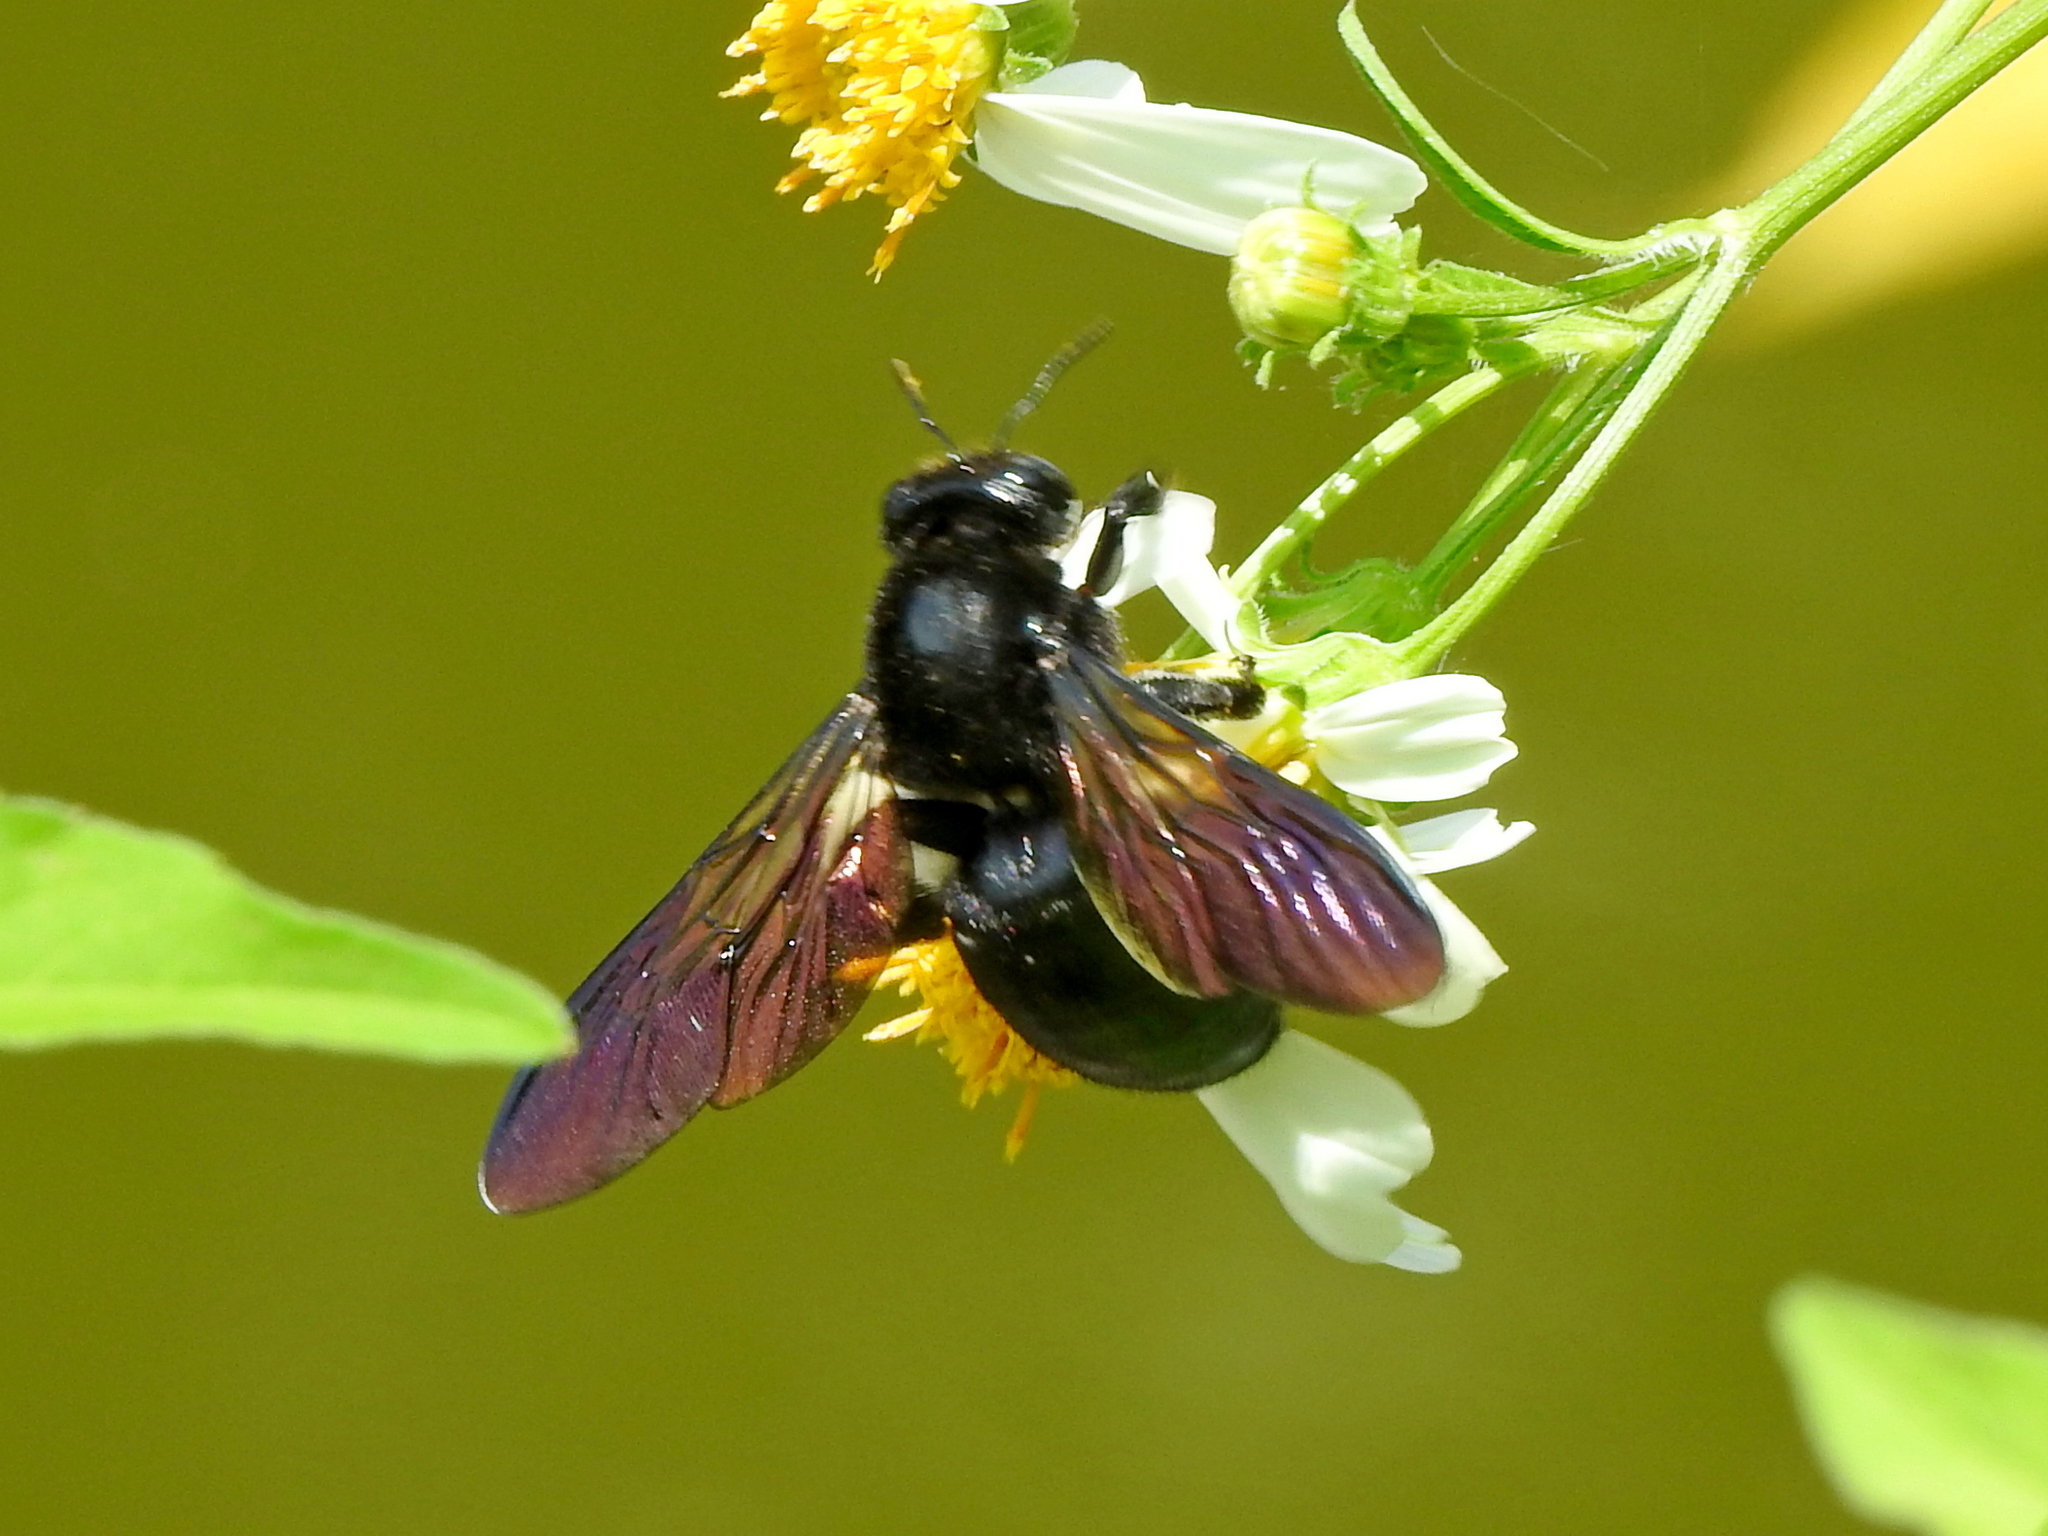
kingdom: Animalia
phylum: Arthropoda
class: Insecta
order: Hymenoptera
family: Apidae
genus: Xylocopa
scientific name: Xylocopa tranquebarorum
